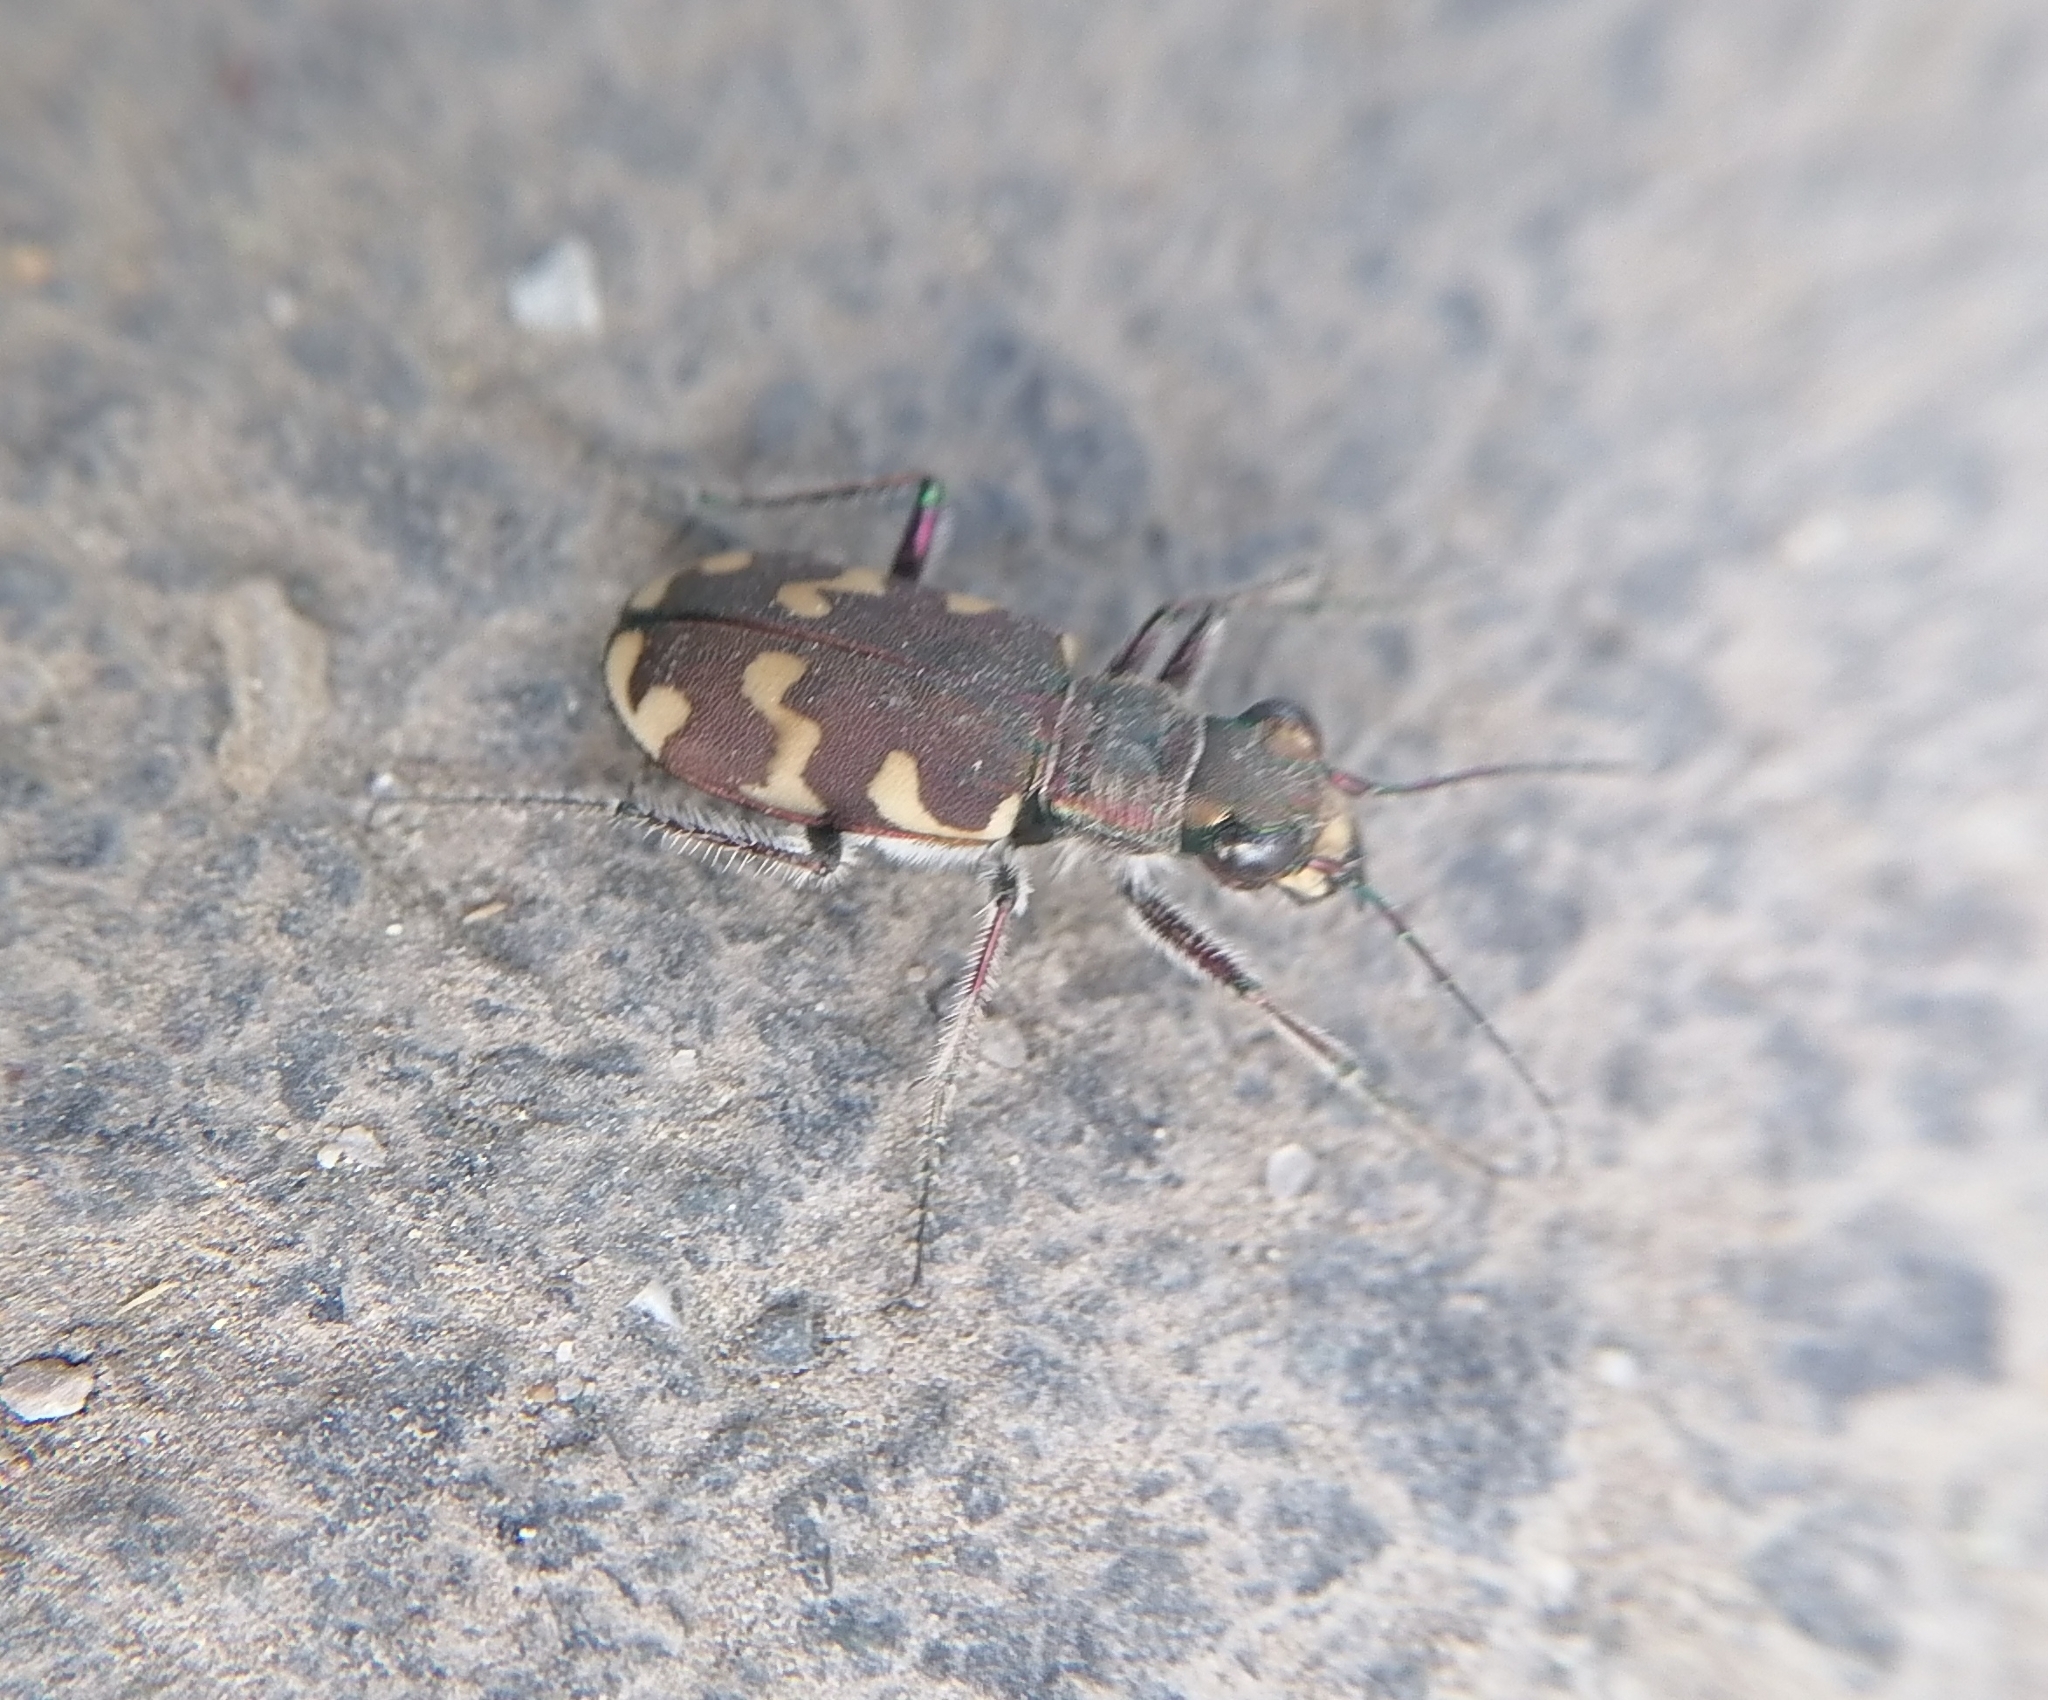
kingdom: Animalia
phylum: Arthropoda
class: Insecta
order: Coleoptera
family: Carabidae
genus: Cicindela
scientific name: Cicindela hybrida
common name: Northern dune tiger beetle
